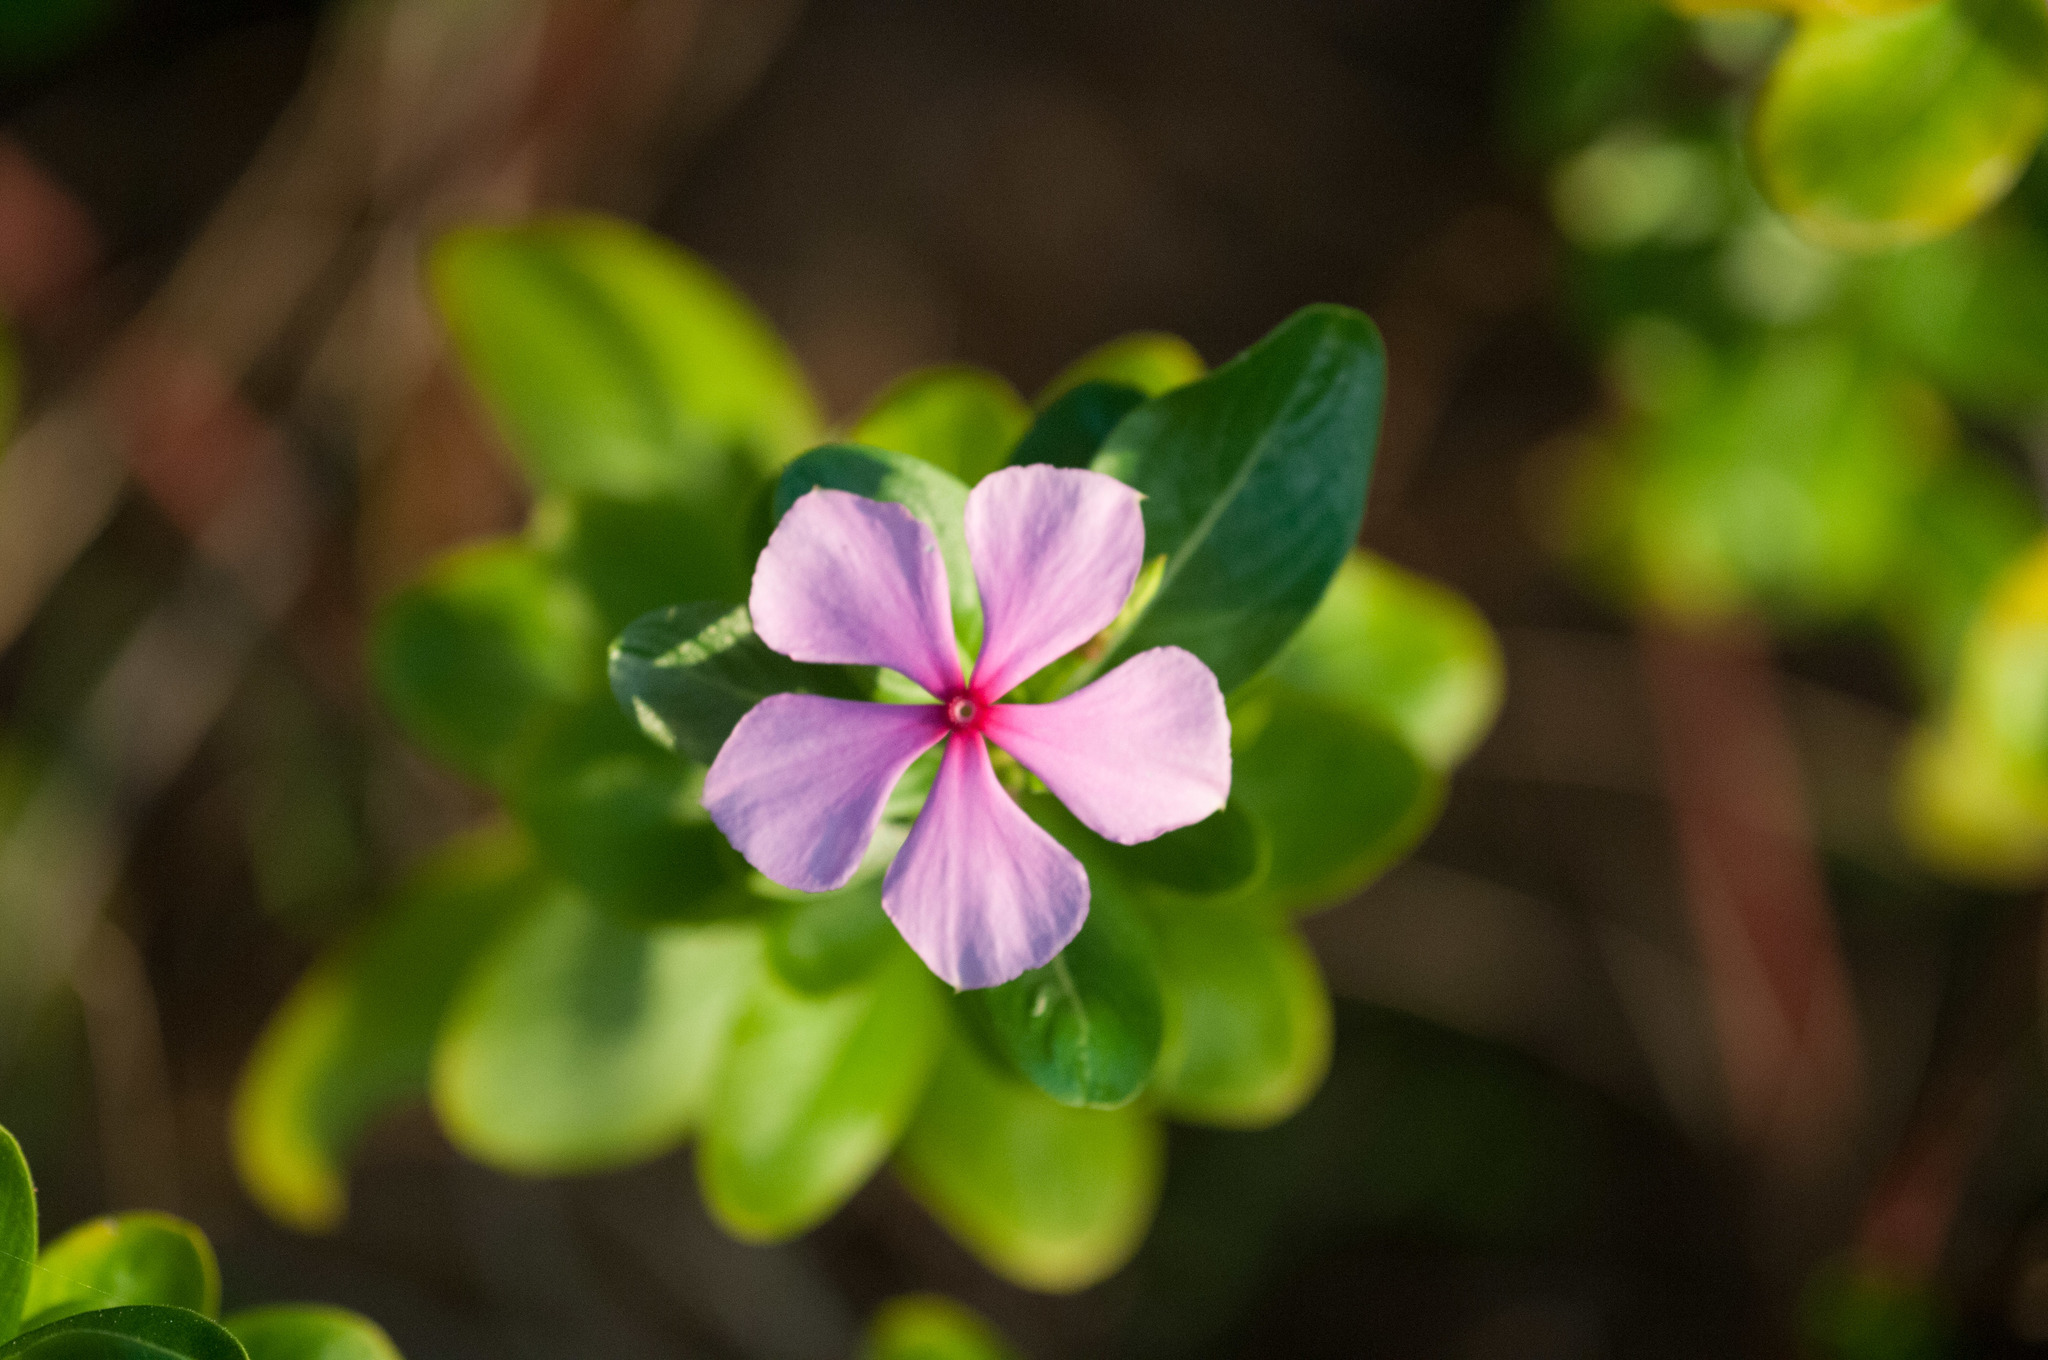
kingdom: Plantae
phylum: Tracheophyta
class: Magnoliopsida
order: Gentianales
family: Apocynaceae
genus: Catharanthus
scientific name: Catharanthus roseus
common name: Madagascar periwinkle
